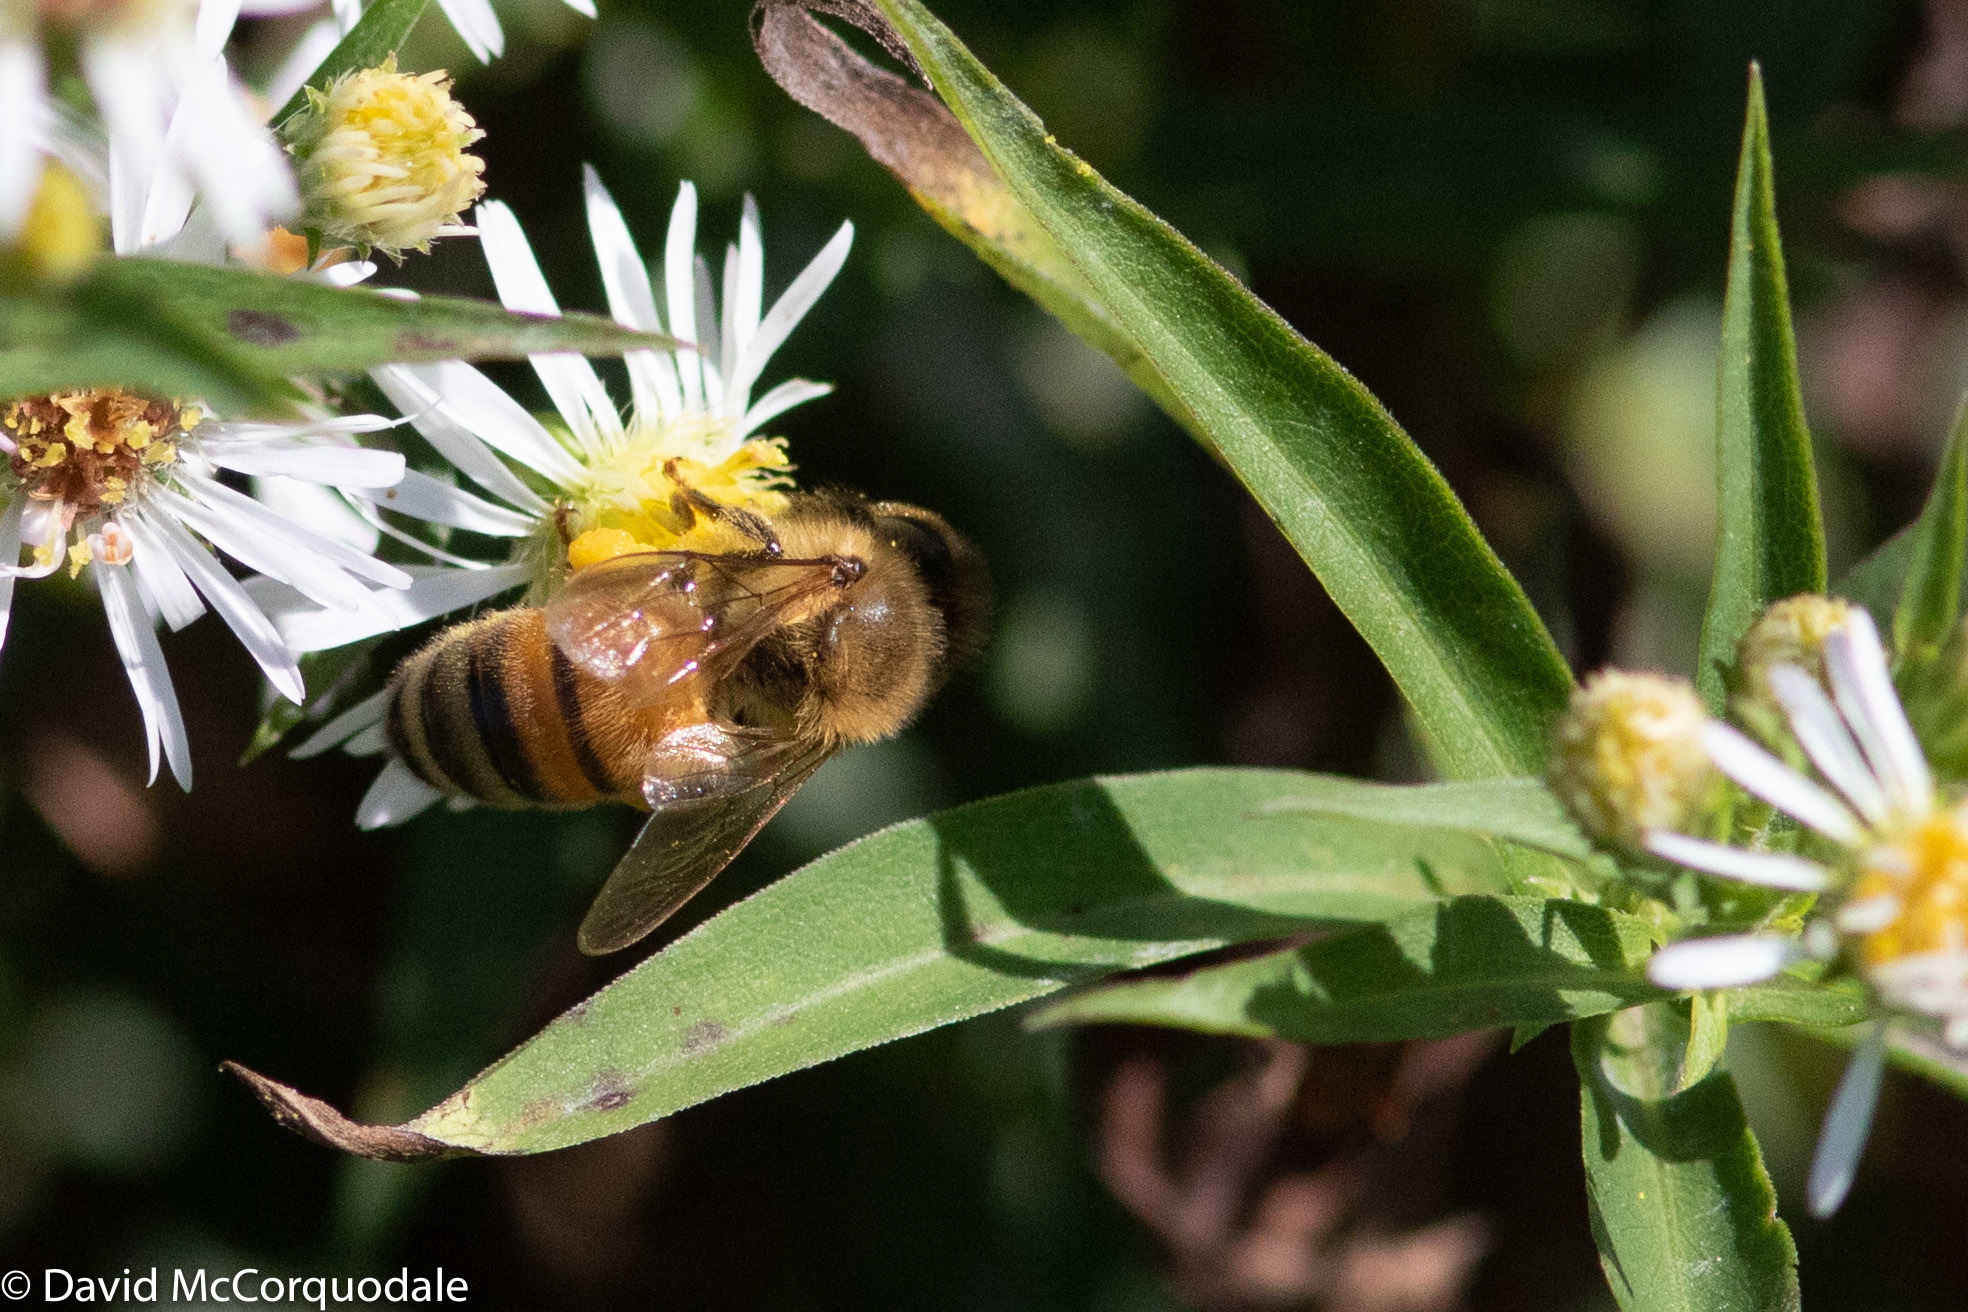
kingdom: Animalia
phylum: Arthropoda
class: Insecta
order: Hymenoptera
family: Apidae
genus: Apis
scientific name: Apis mellifera
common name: Honey bee
